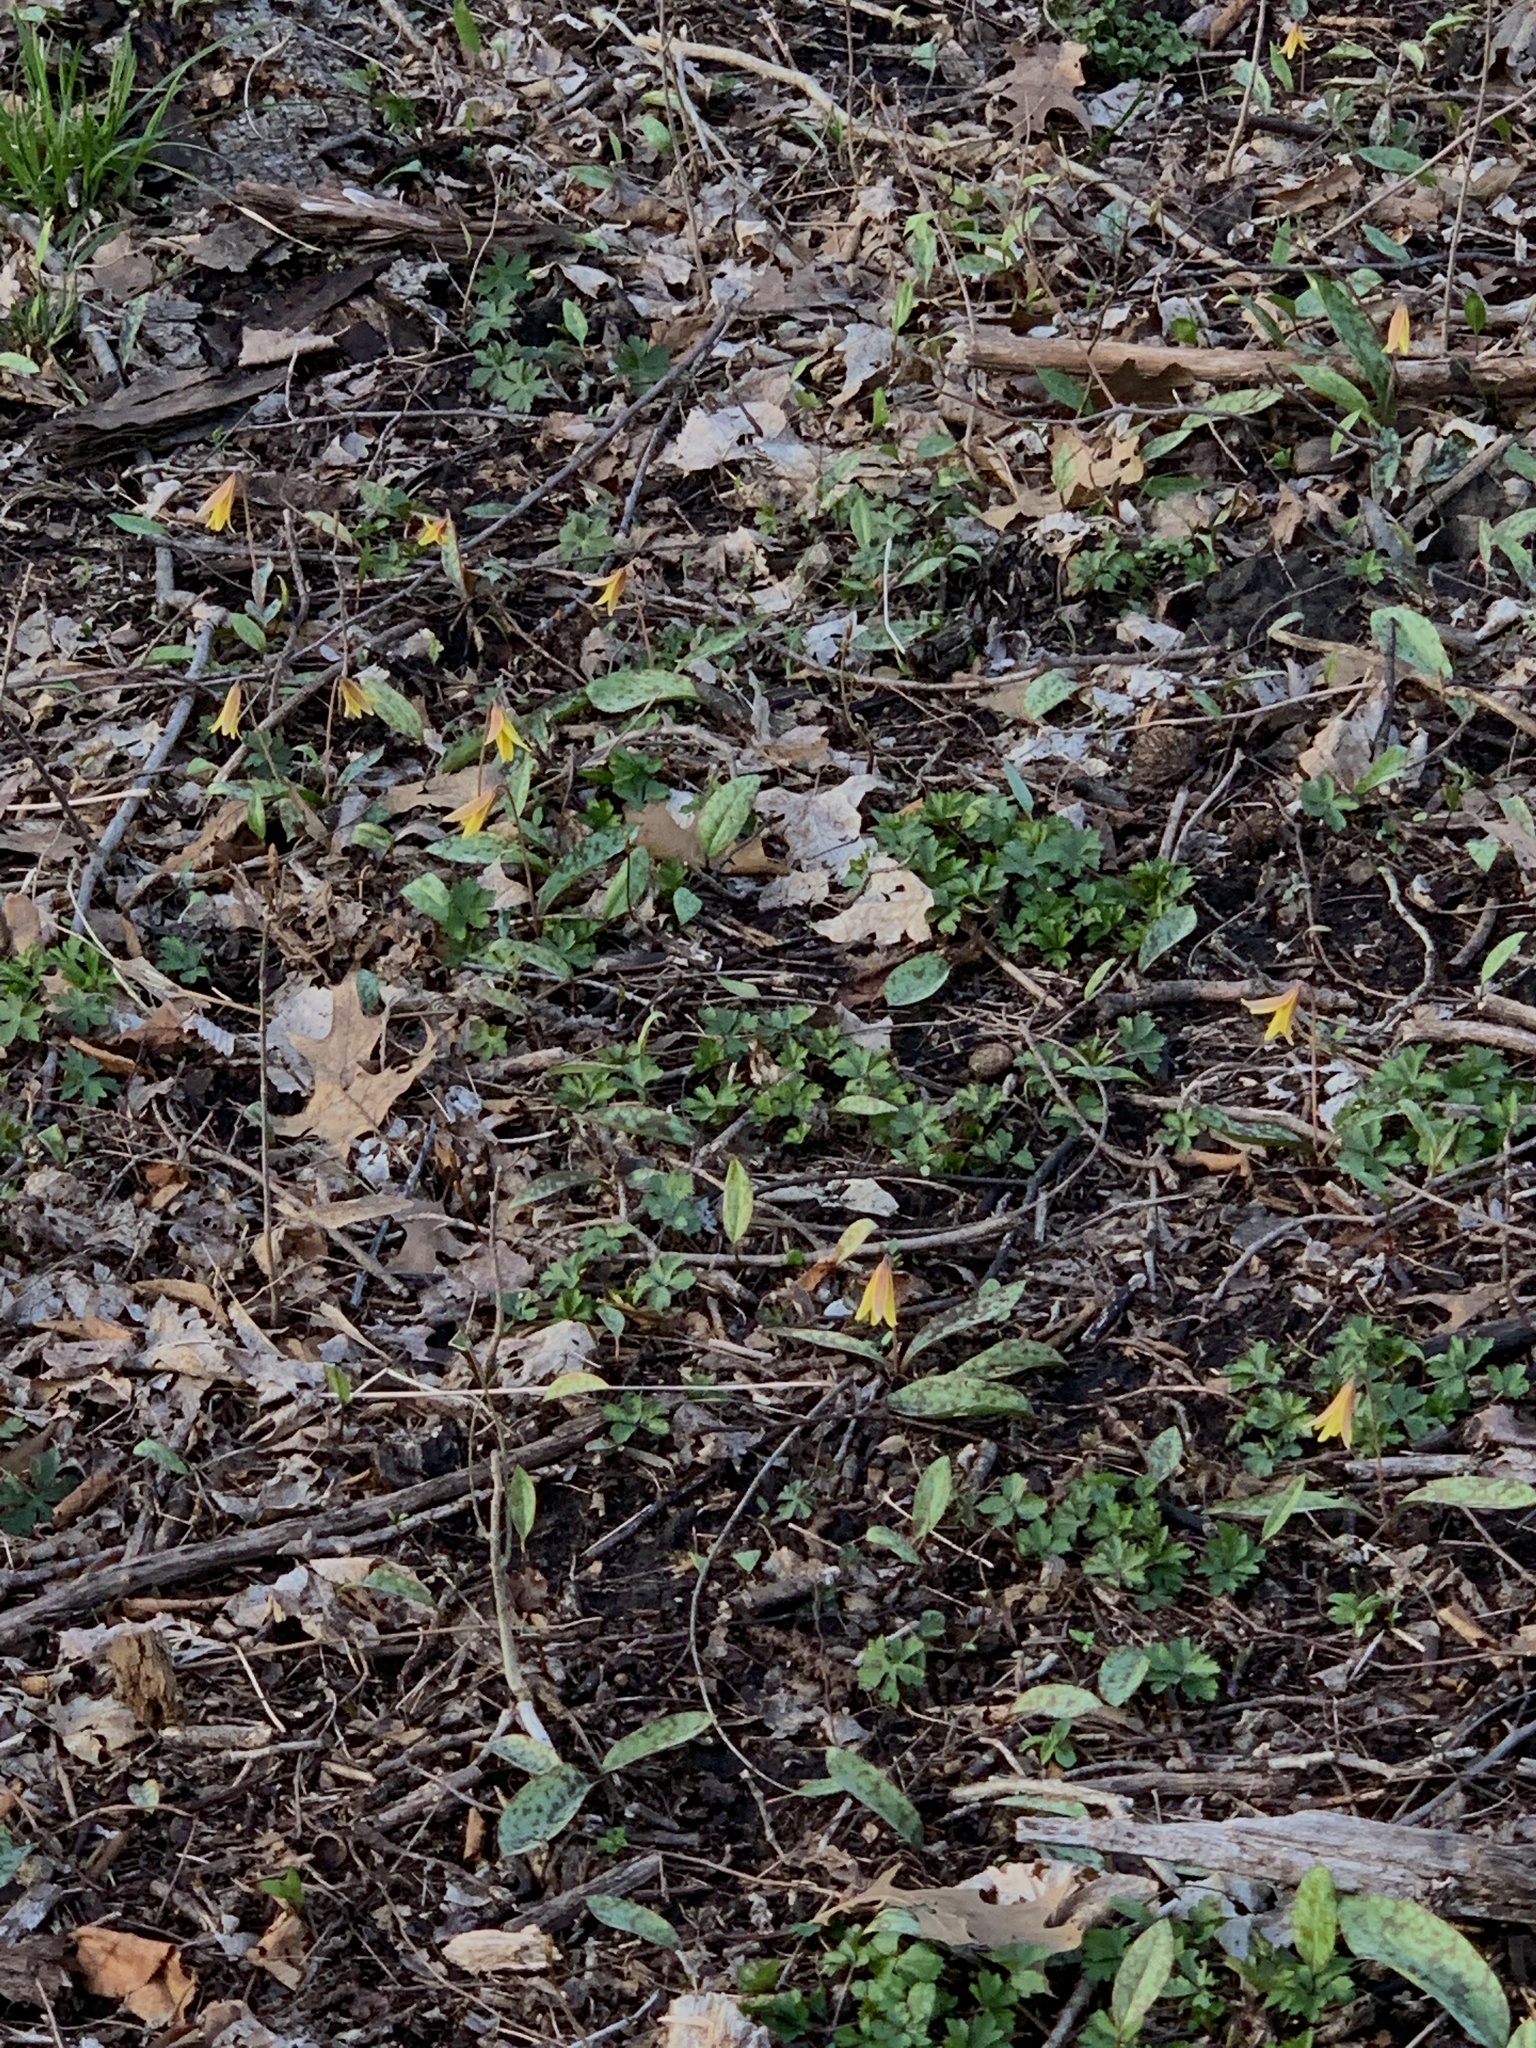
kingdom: Plantae
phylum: Tracheophyta
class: Liliopsida
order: Liliales
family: Liliaceae
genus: Erythronium
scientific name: Erythronium americanum
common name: Yellow adder's-tongue
